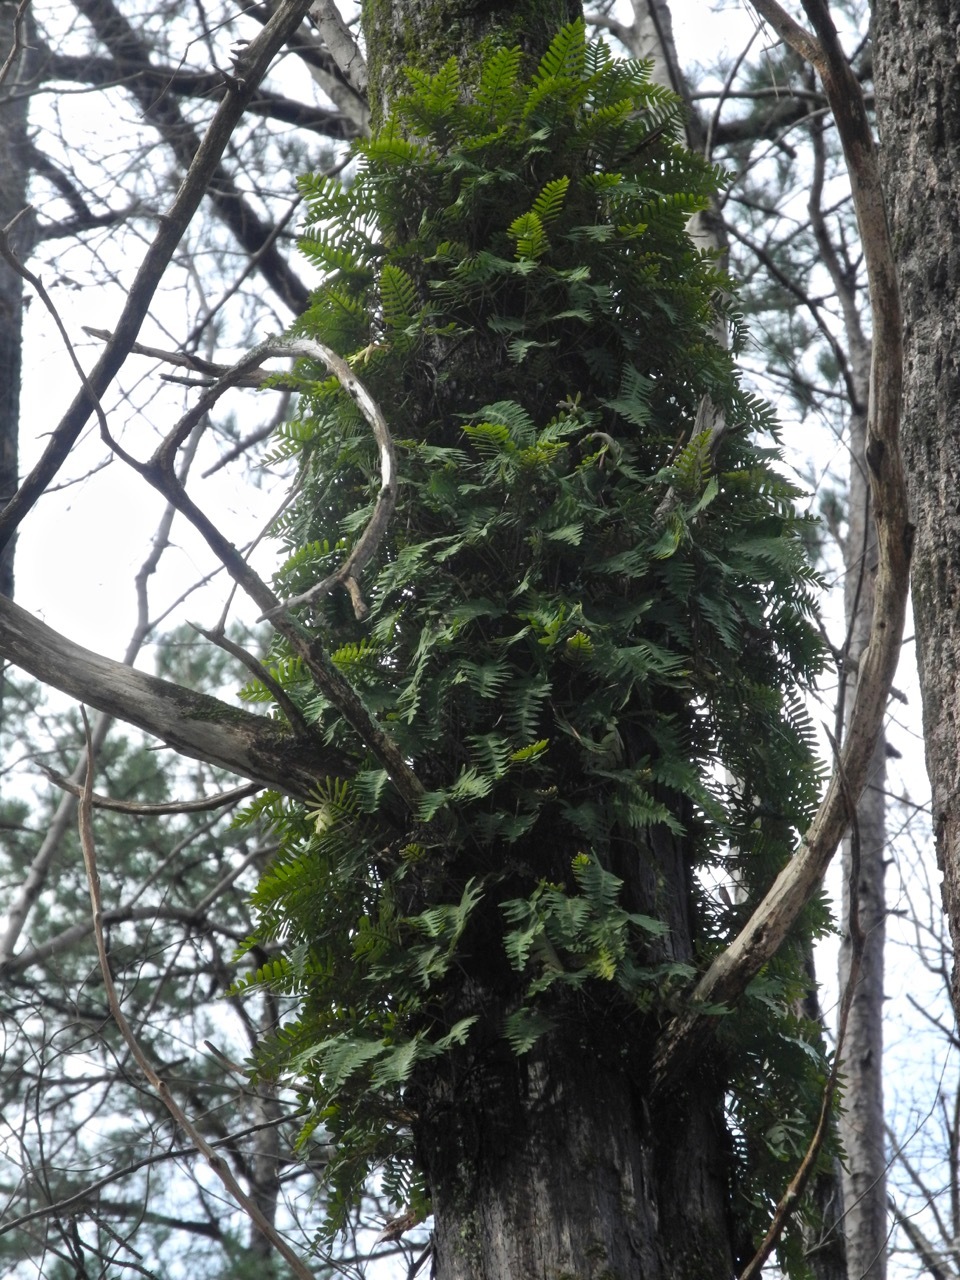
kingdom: Plantae
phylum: Tracheophyta
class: Polypodiopsida
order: Polypodiales
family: Polypodiaceae
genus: Pleopeltis
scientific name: Pleopeltis michauxiana
